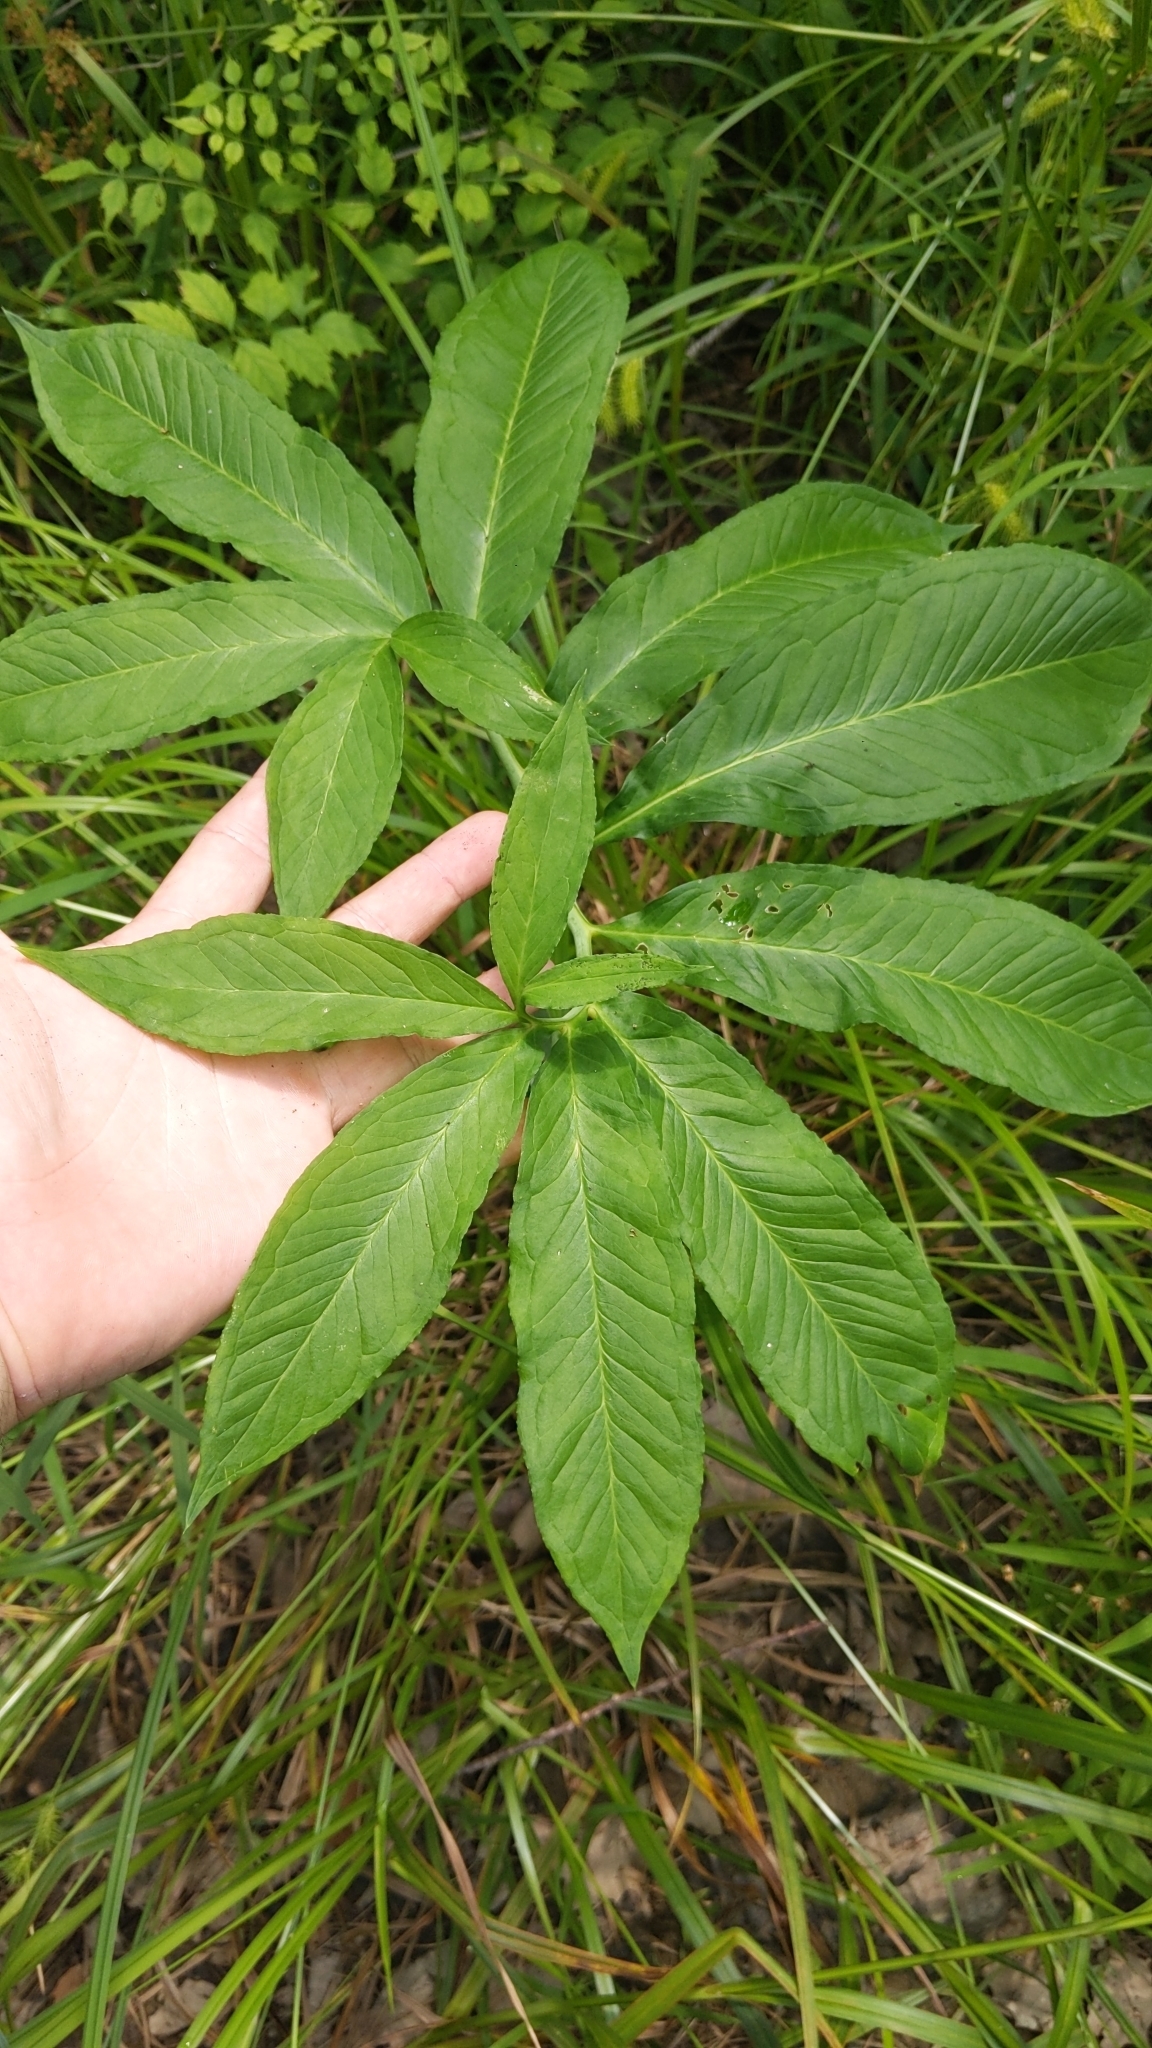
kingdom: Plantae
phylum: Tracheophyta
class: Liliopsida
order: Alismatales
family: Araceae
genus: Arisaema
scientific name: Arisaema dracontium
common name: Dragon-arum
